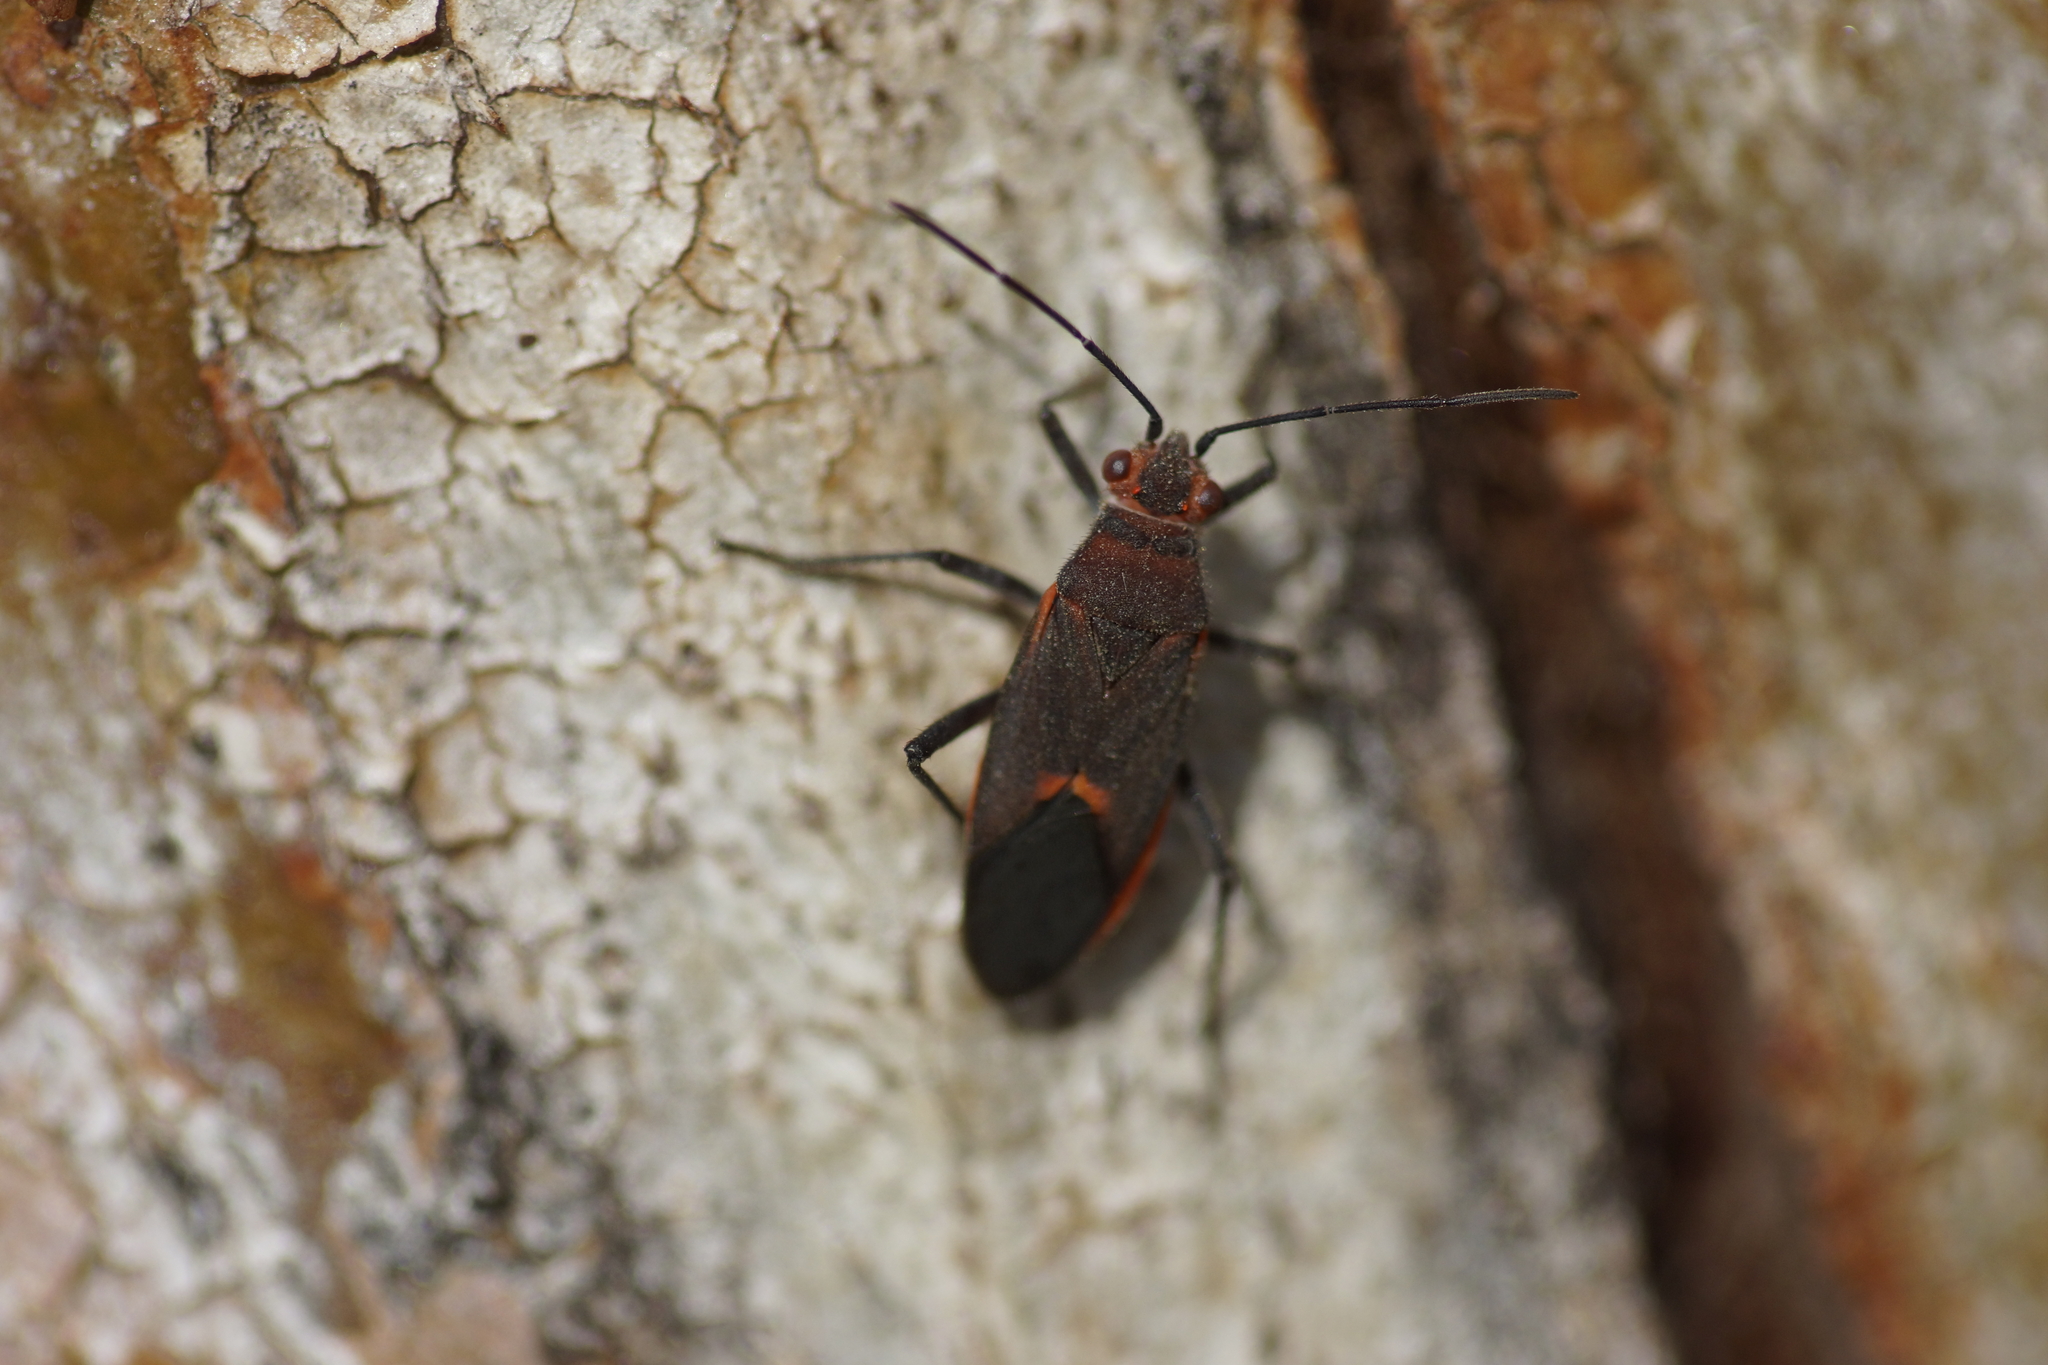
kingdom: Animalia
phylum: Arthropoda
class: Insecta
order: Hemiptera
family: Rhopalidae
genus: Leptocoris
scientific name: Leptocoris mitellatus
